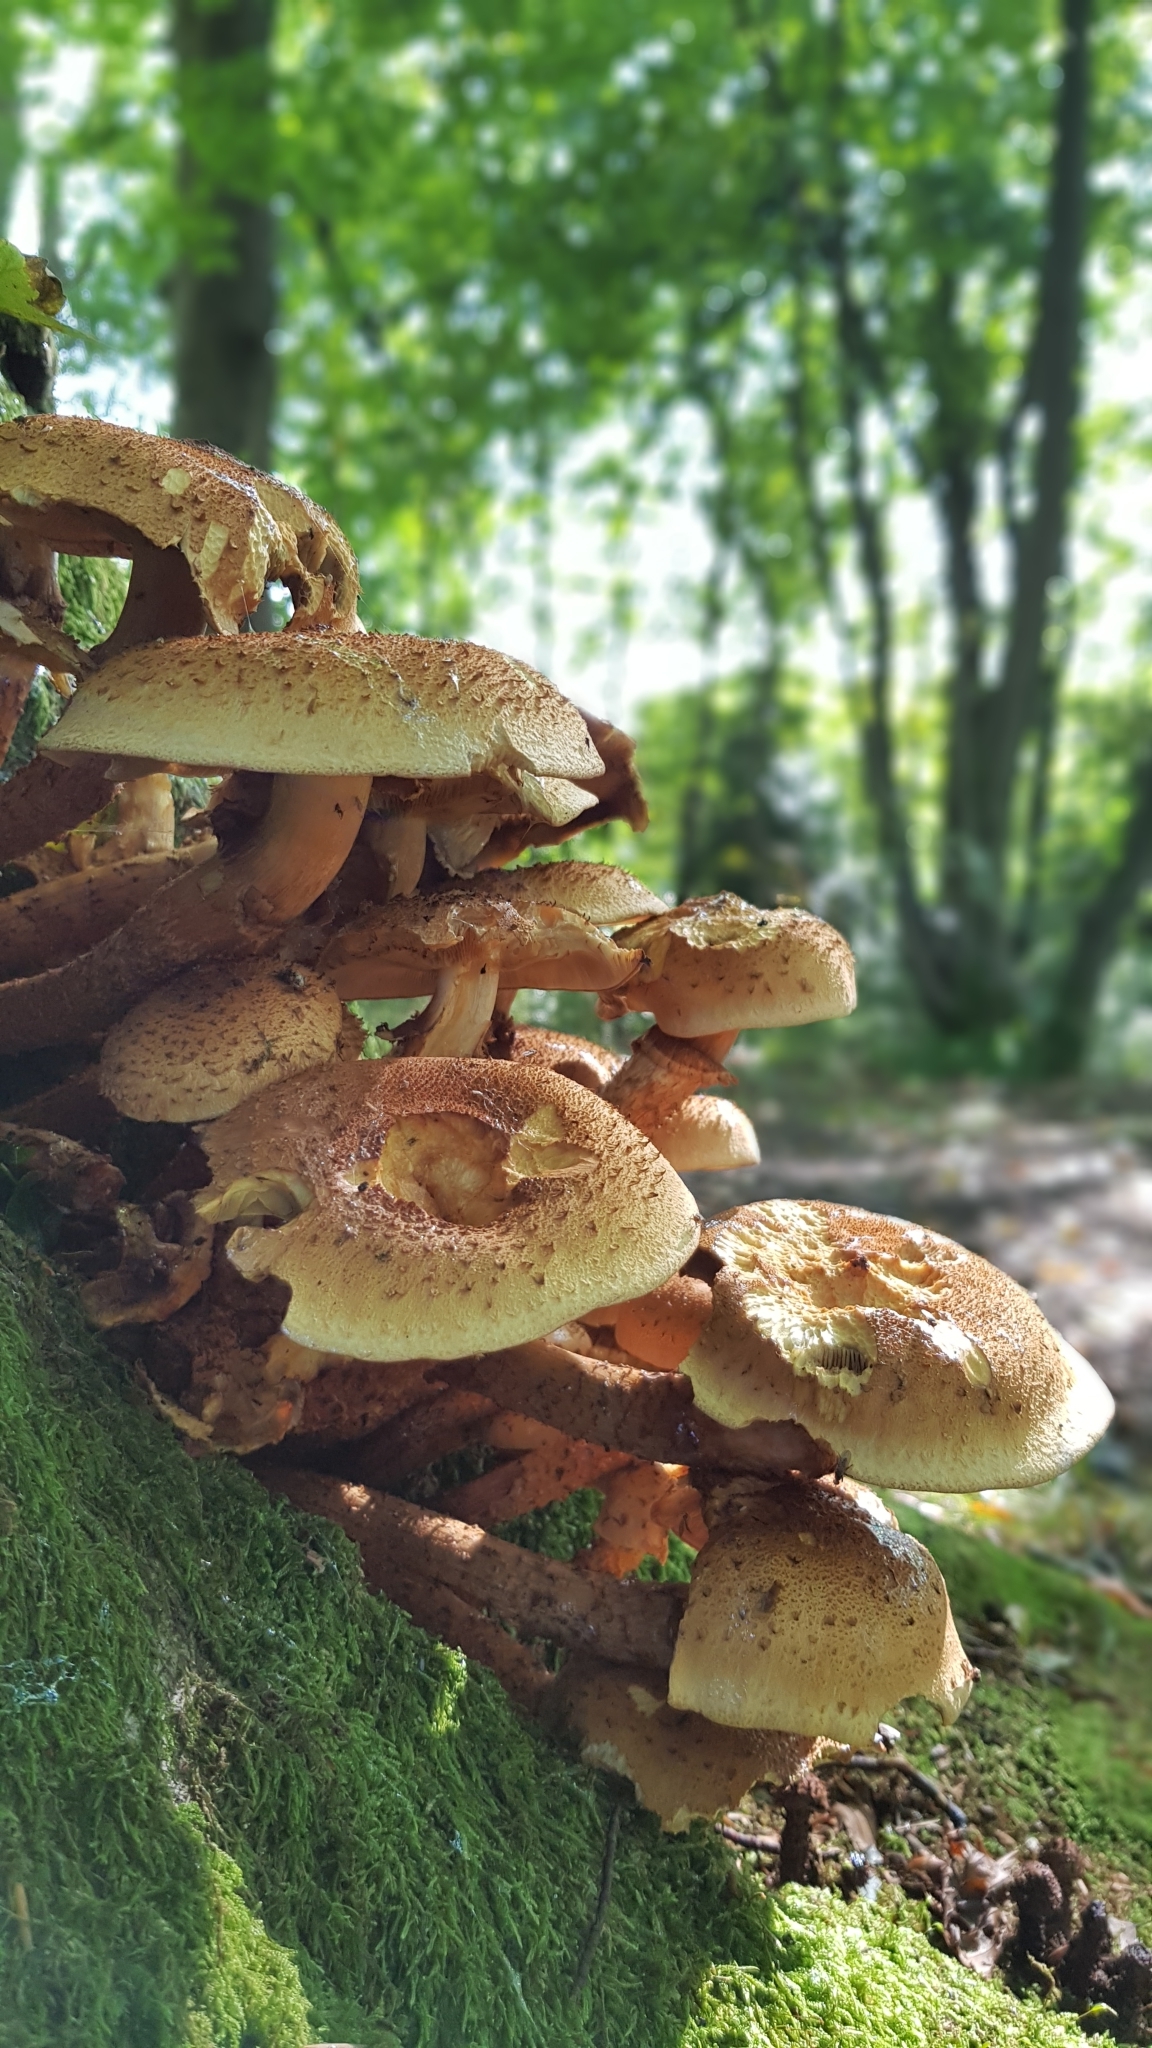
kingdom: Fungi
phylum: Basidiomycota
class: Agaricomycetes
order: Agaricales
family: Strophariaceae
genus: Pholiota
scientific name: Pholiota squarrosa
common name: Shaggy pholiota
